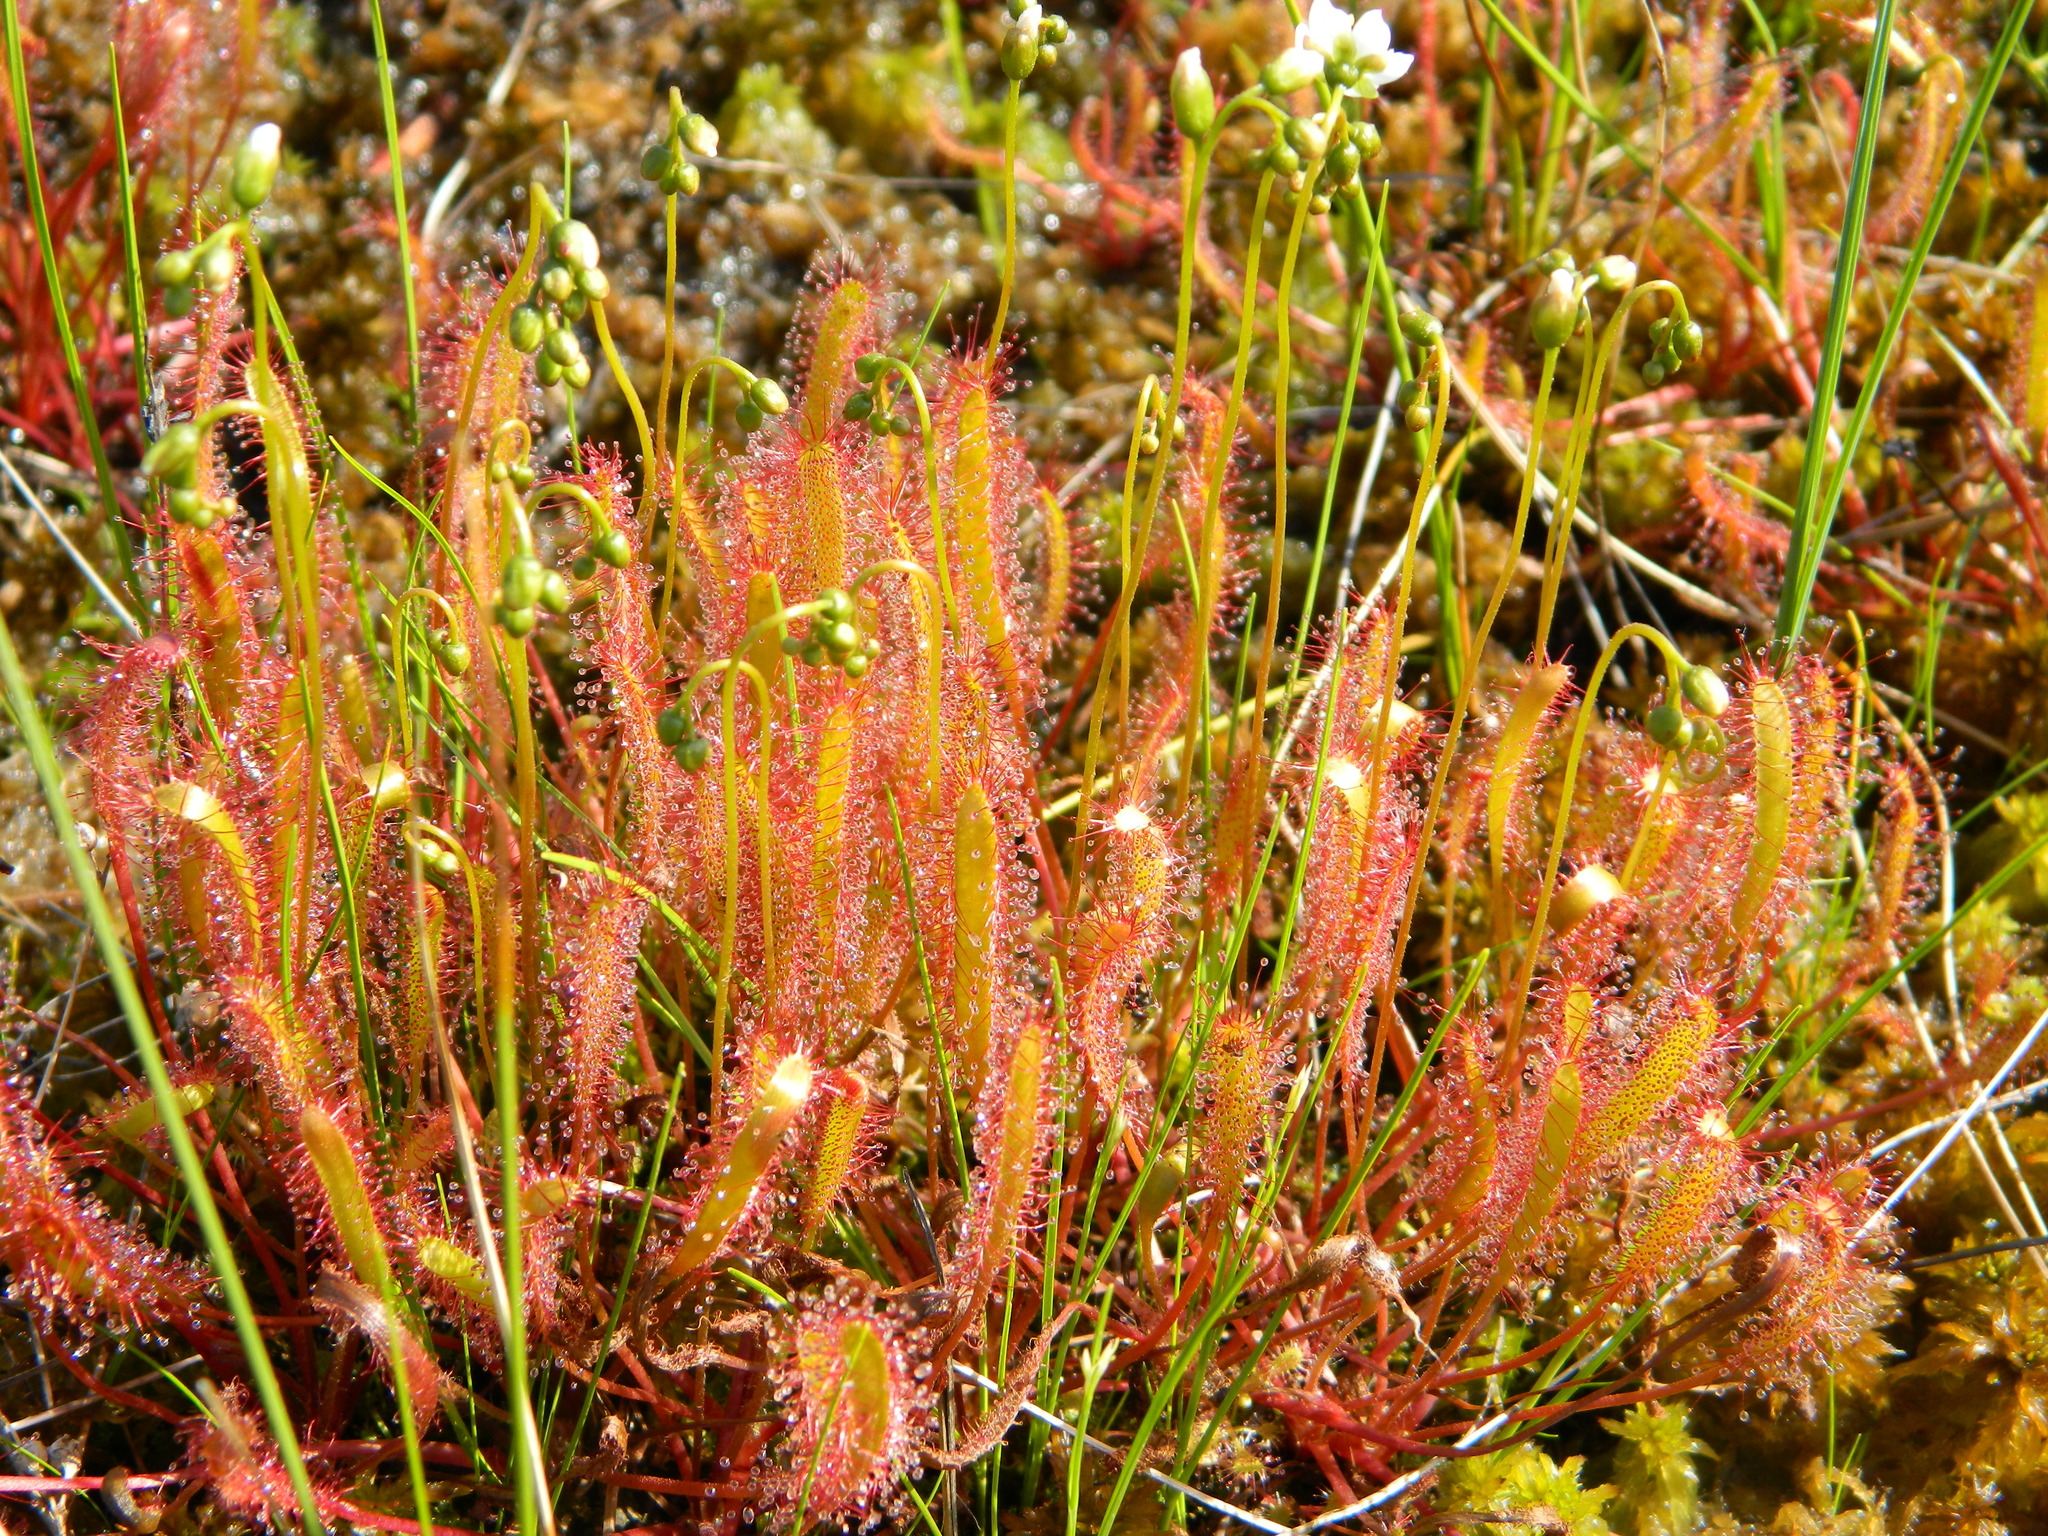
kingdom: Plantae
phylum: Tracheophyta
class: Magnoliopsida
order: Caryophyllales
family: Droseraceae
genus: Drosera
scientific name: Drosera linearis
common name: Linear-leaved sundew
